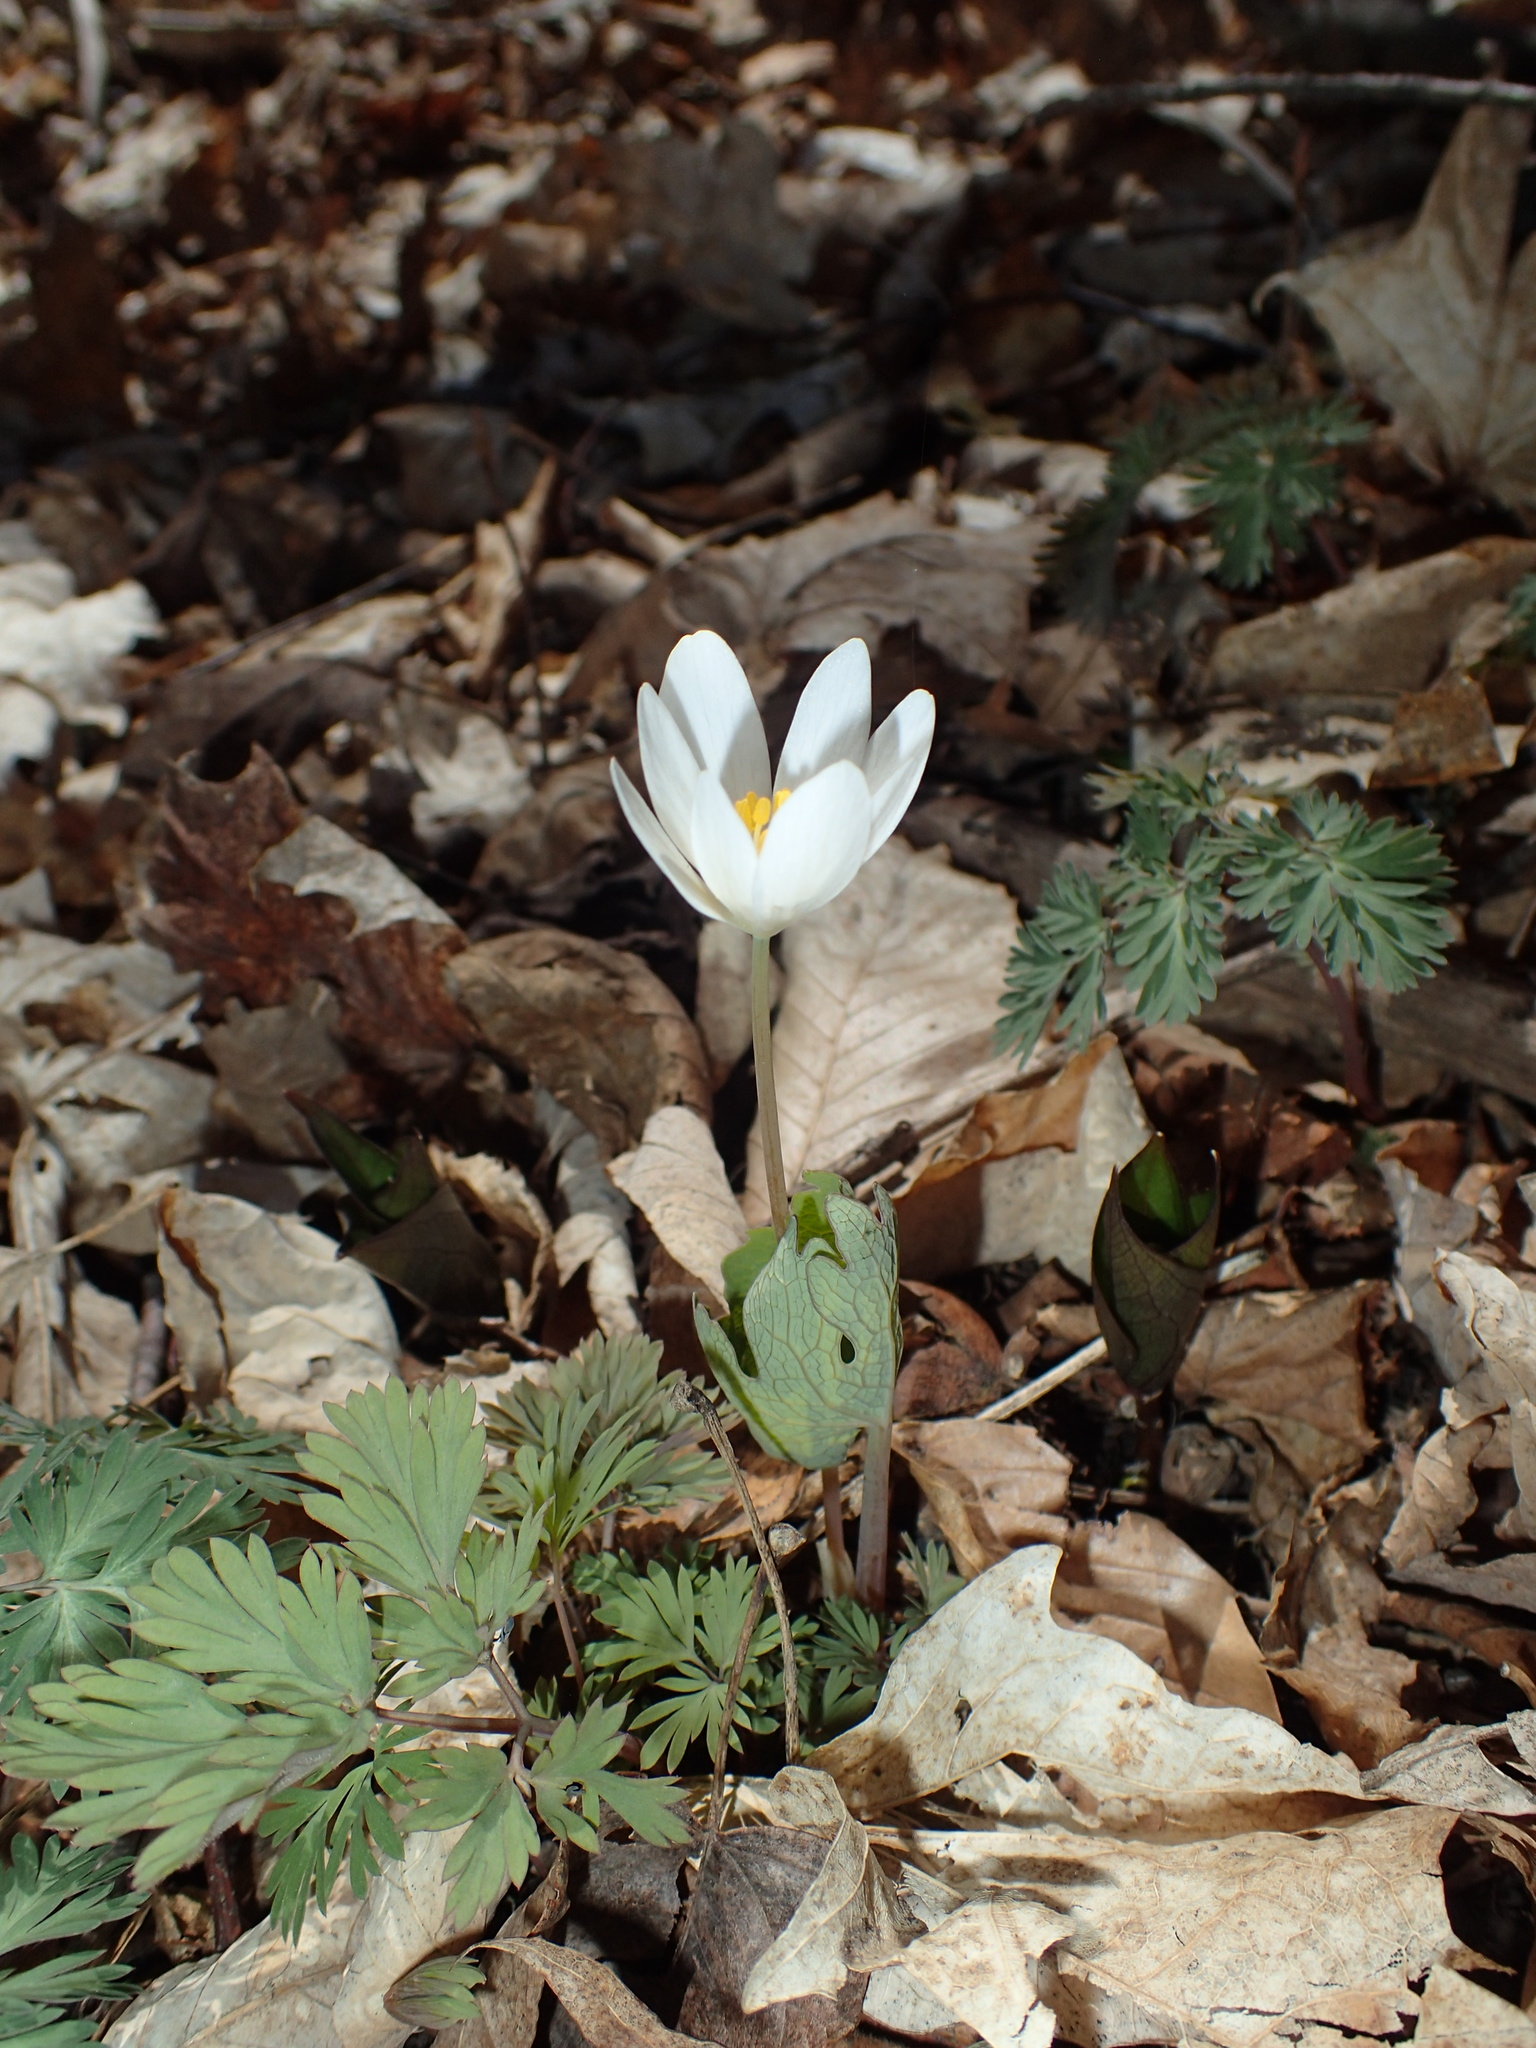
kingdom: Plantae
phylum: Tracheophyta
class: Magnoliopsida
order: Ranunculales
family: Papaveraceae
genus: Sanguinaria
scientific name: Sanguinaria canadensis
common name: Bloodroot
